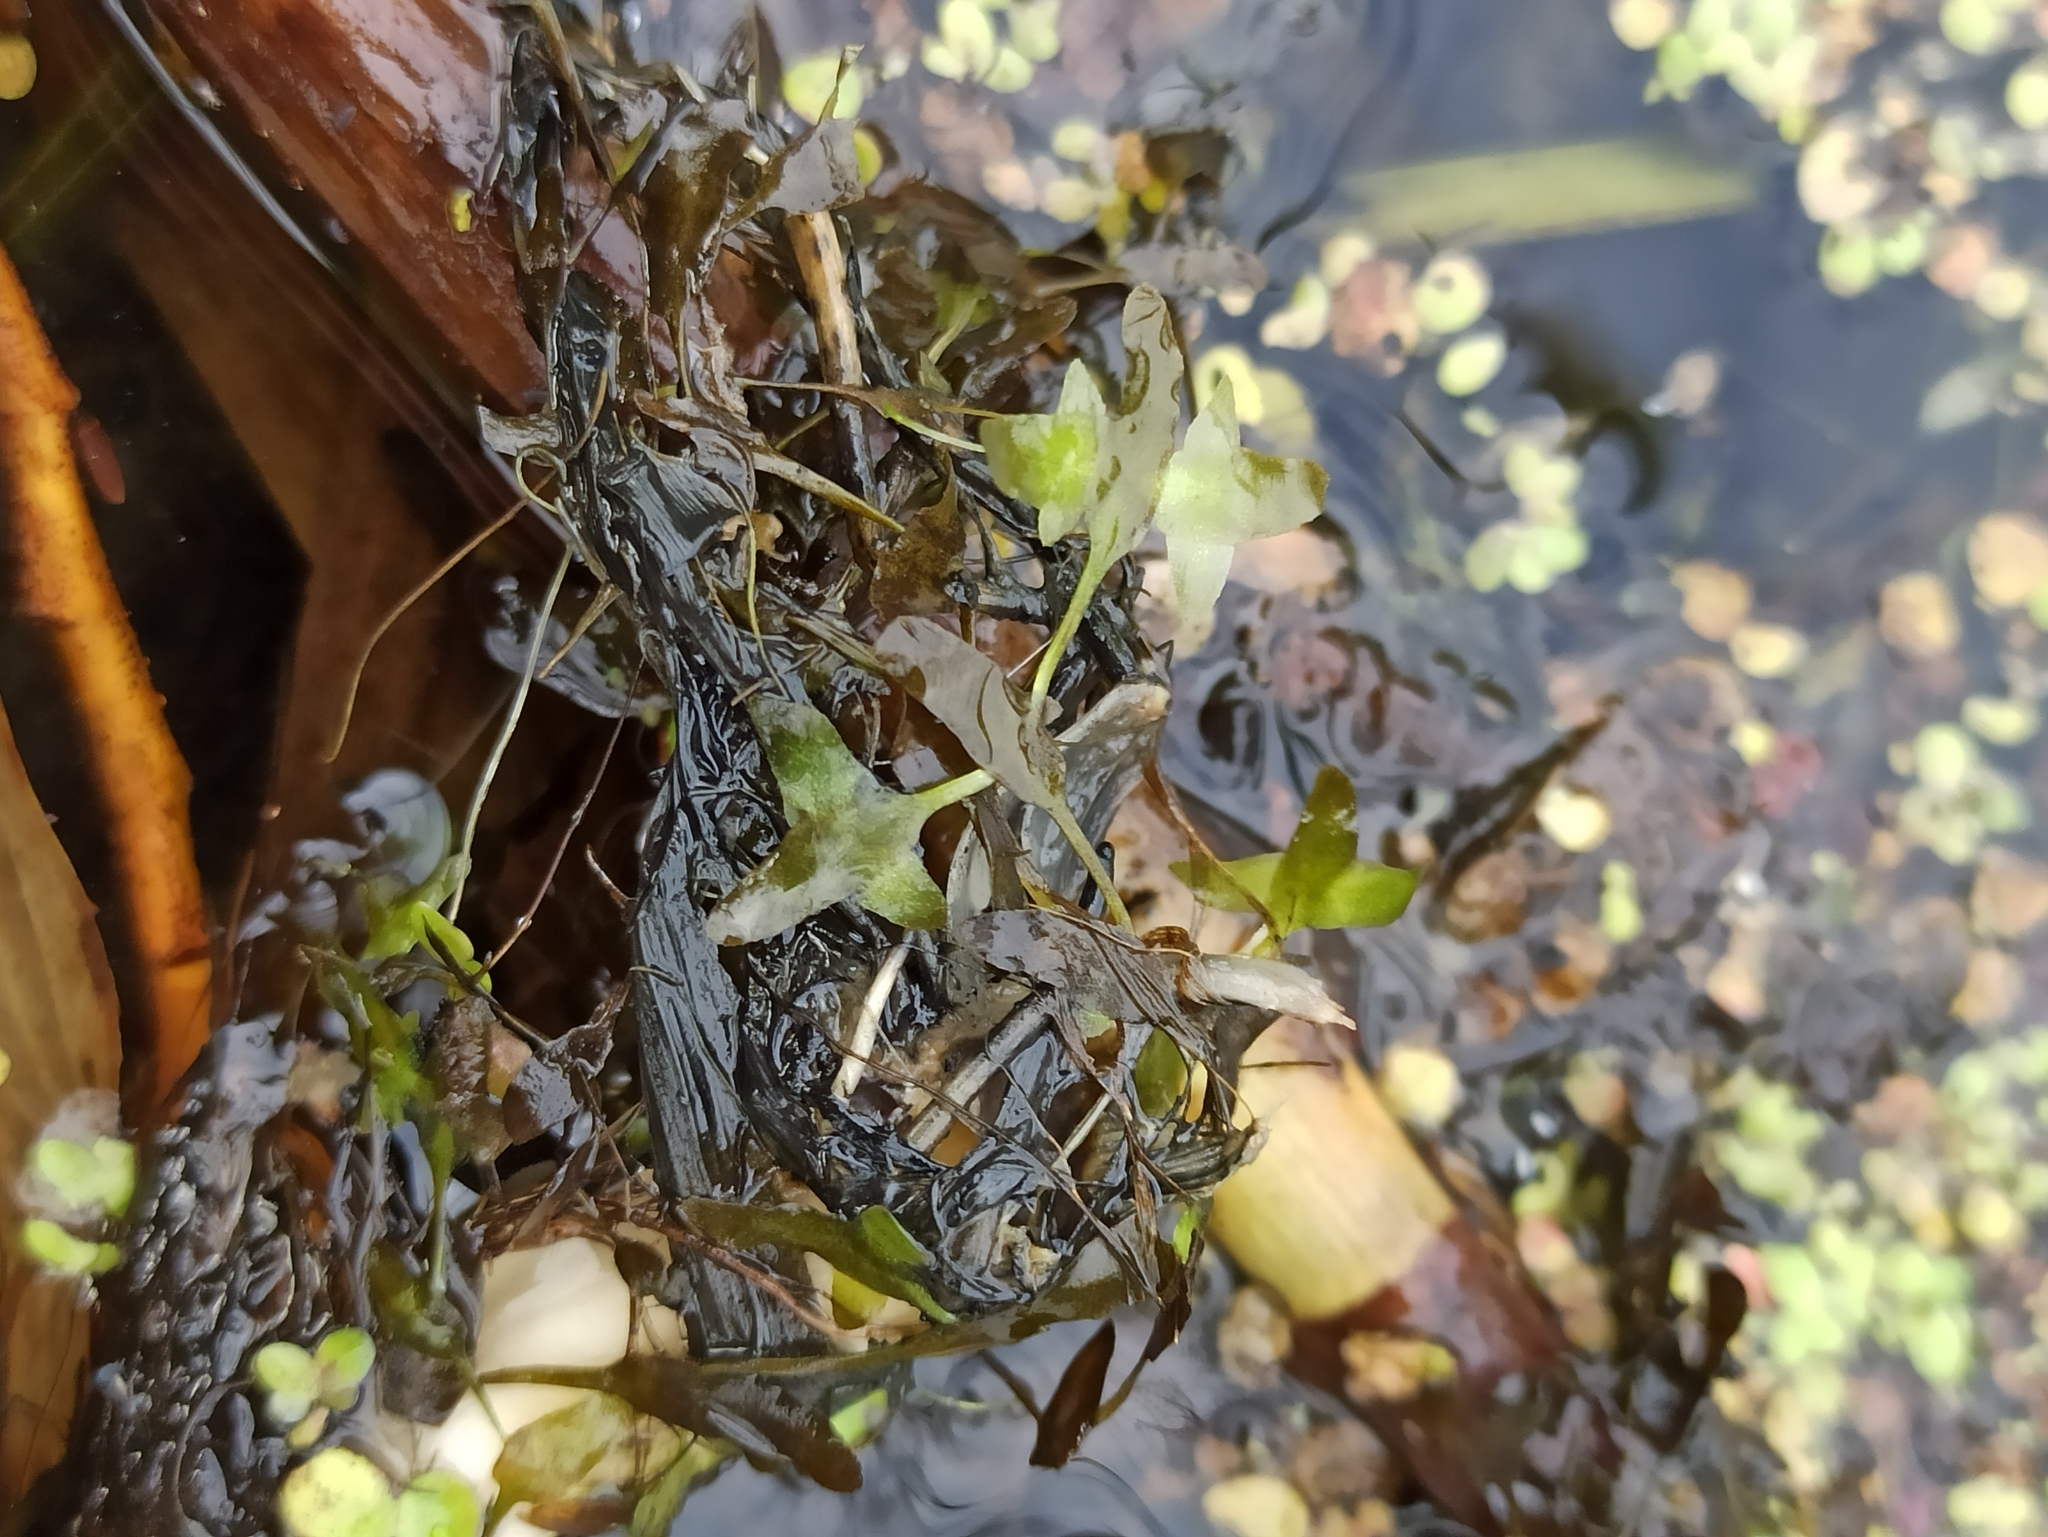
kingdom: Plantae
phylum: Tracheophyta
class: Liliopsida
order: Alismatales
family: Araceae
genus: Lemna
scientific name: Lemna trisulca
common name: Ivy-leaved duckweed
